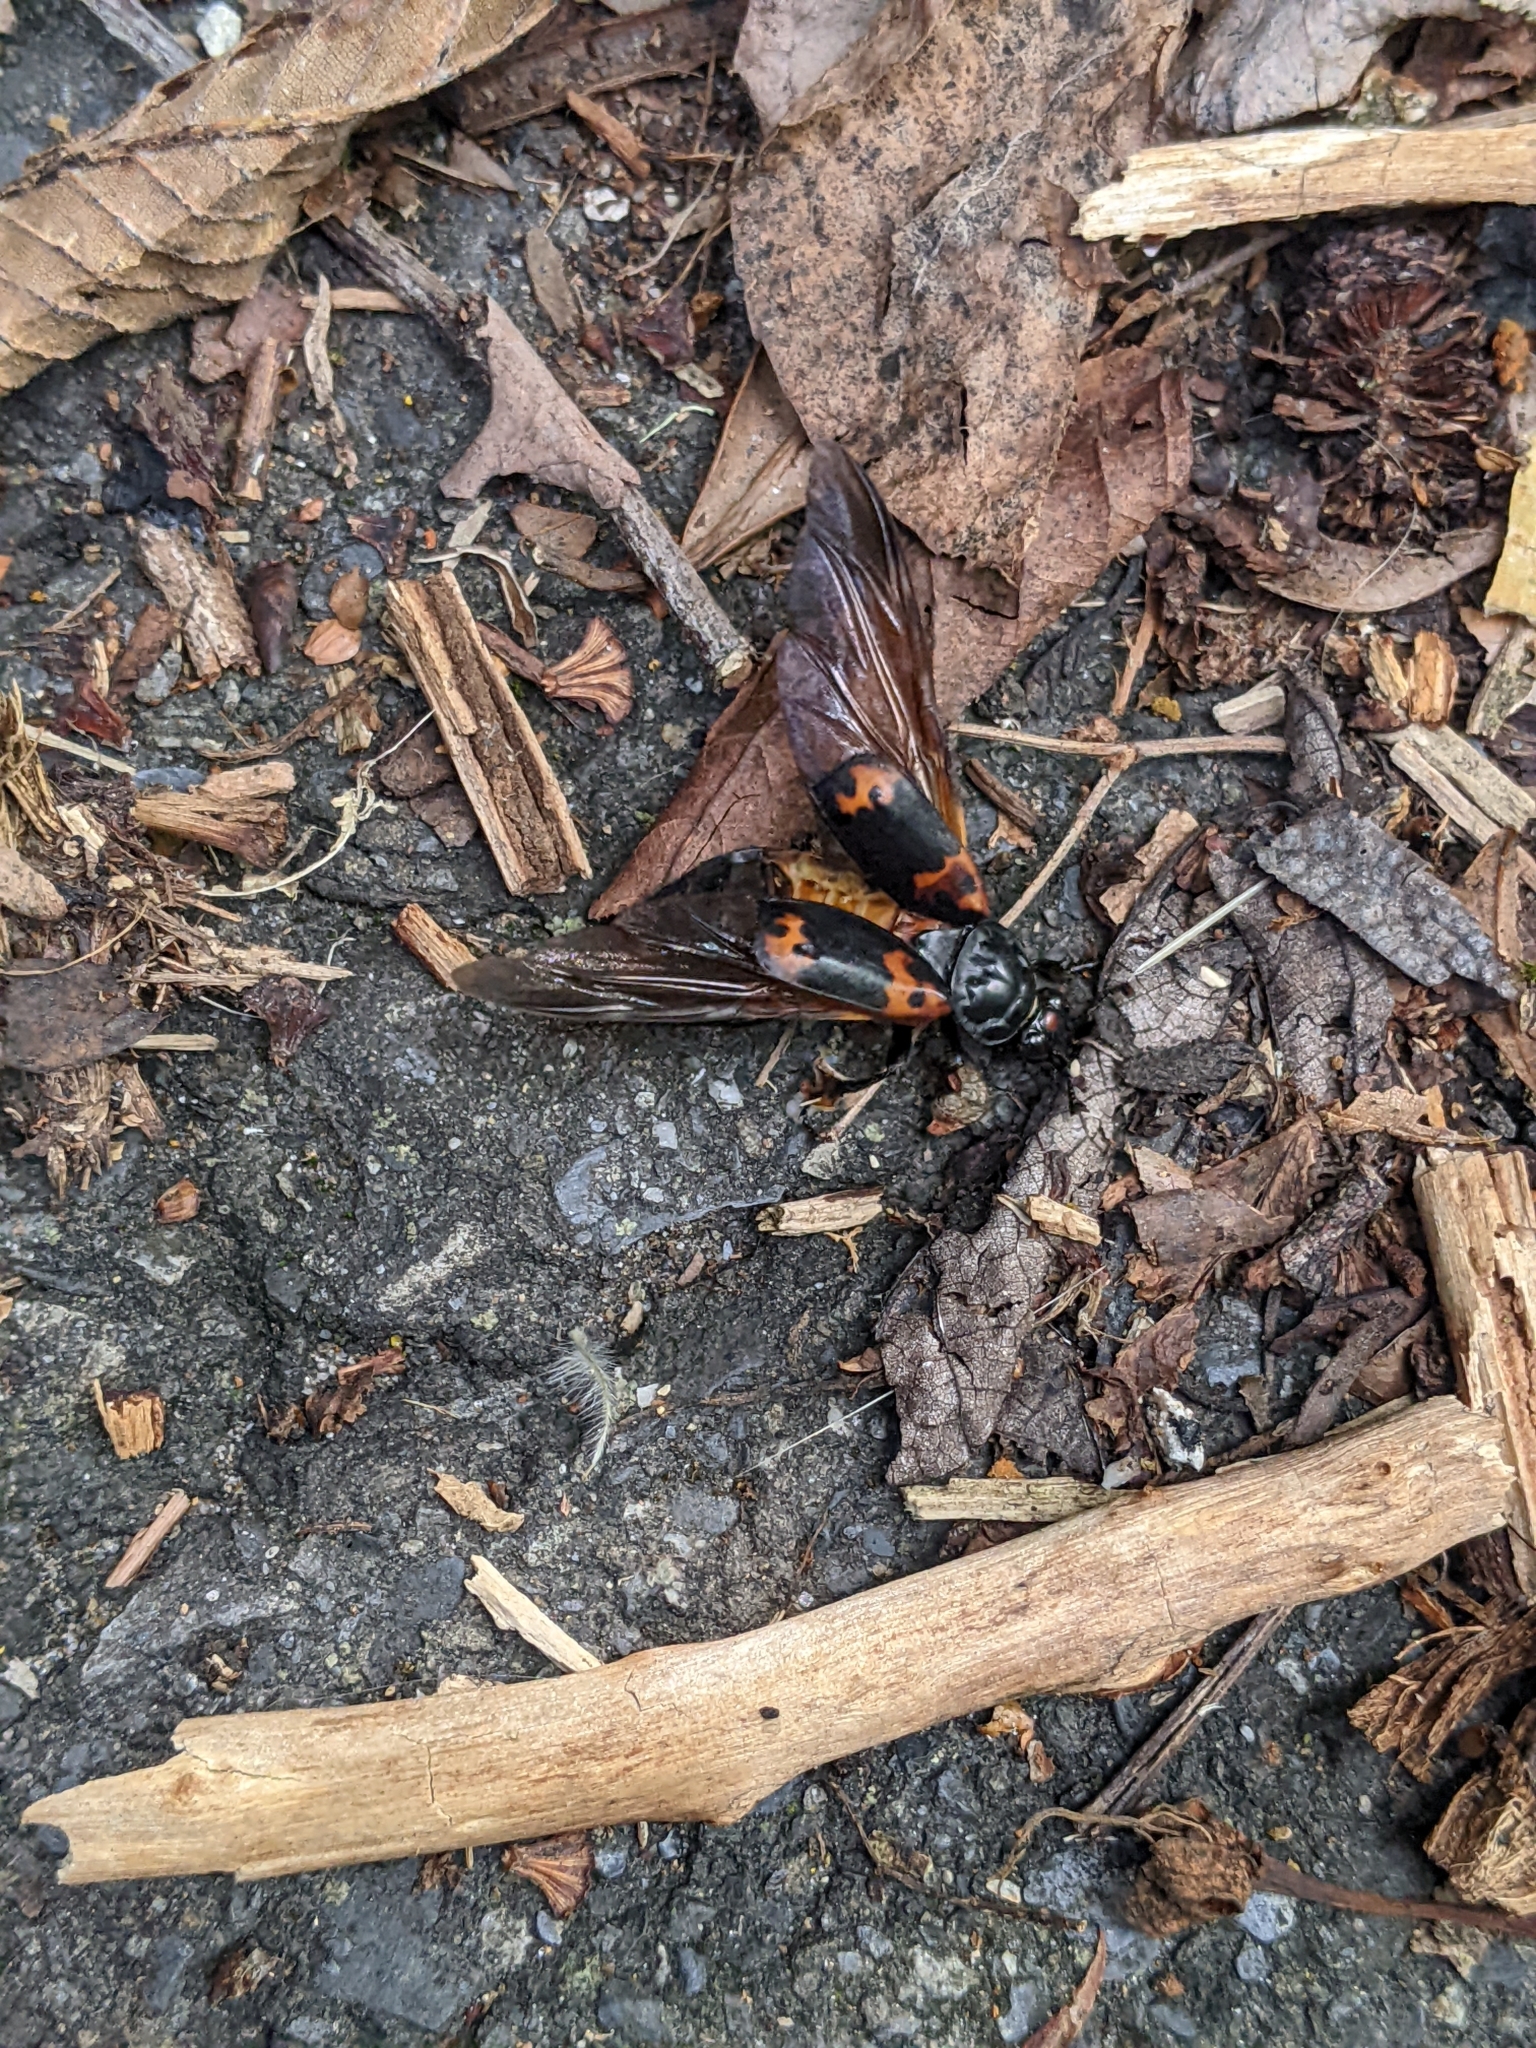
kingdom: Animalia
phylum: Arthropoda
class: Insecta
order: Coleoptera
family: Staphylinidae
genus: Nicrophorus
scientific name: Nicrophorus nepalensis
